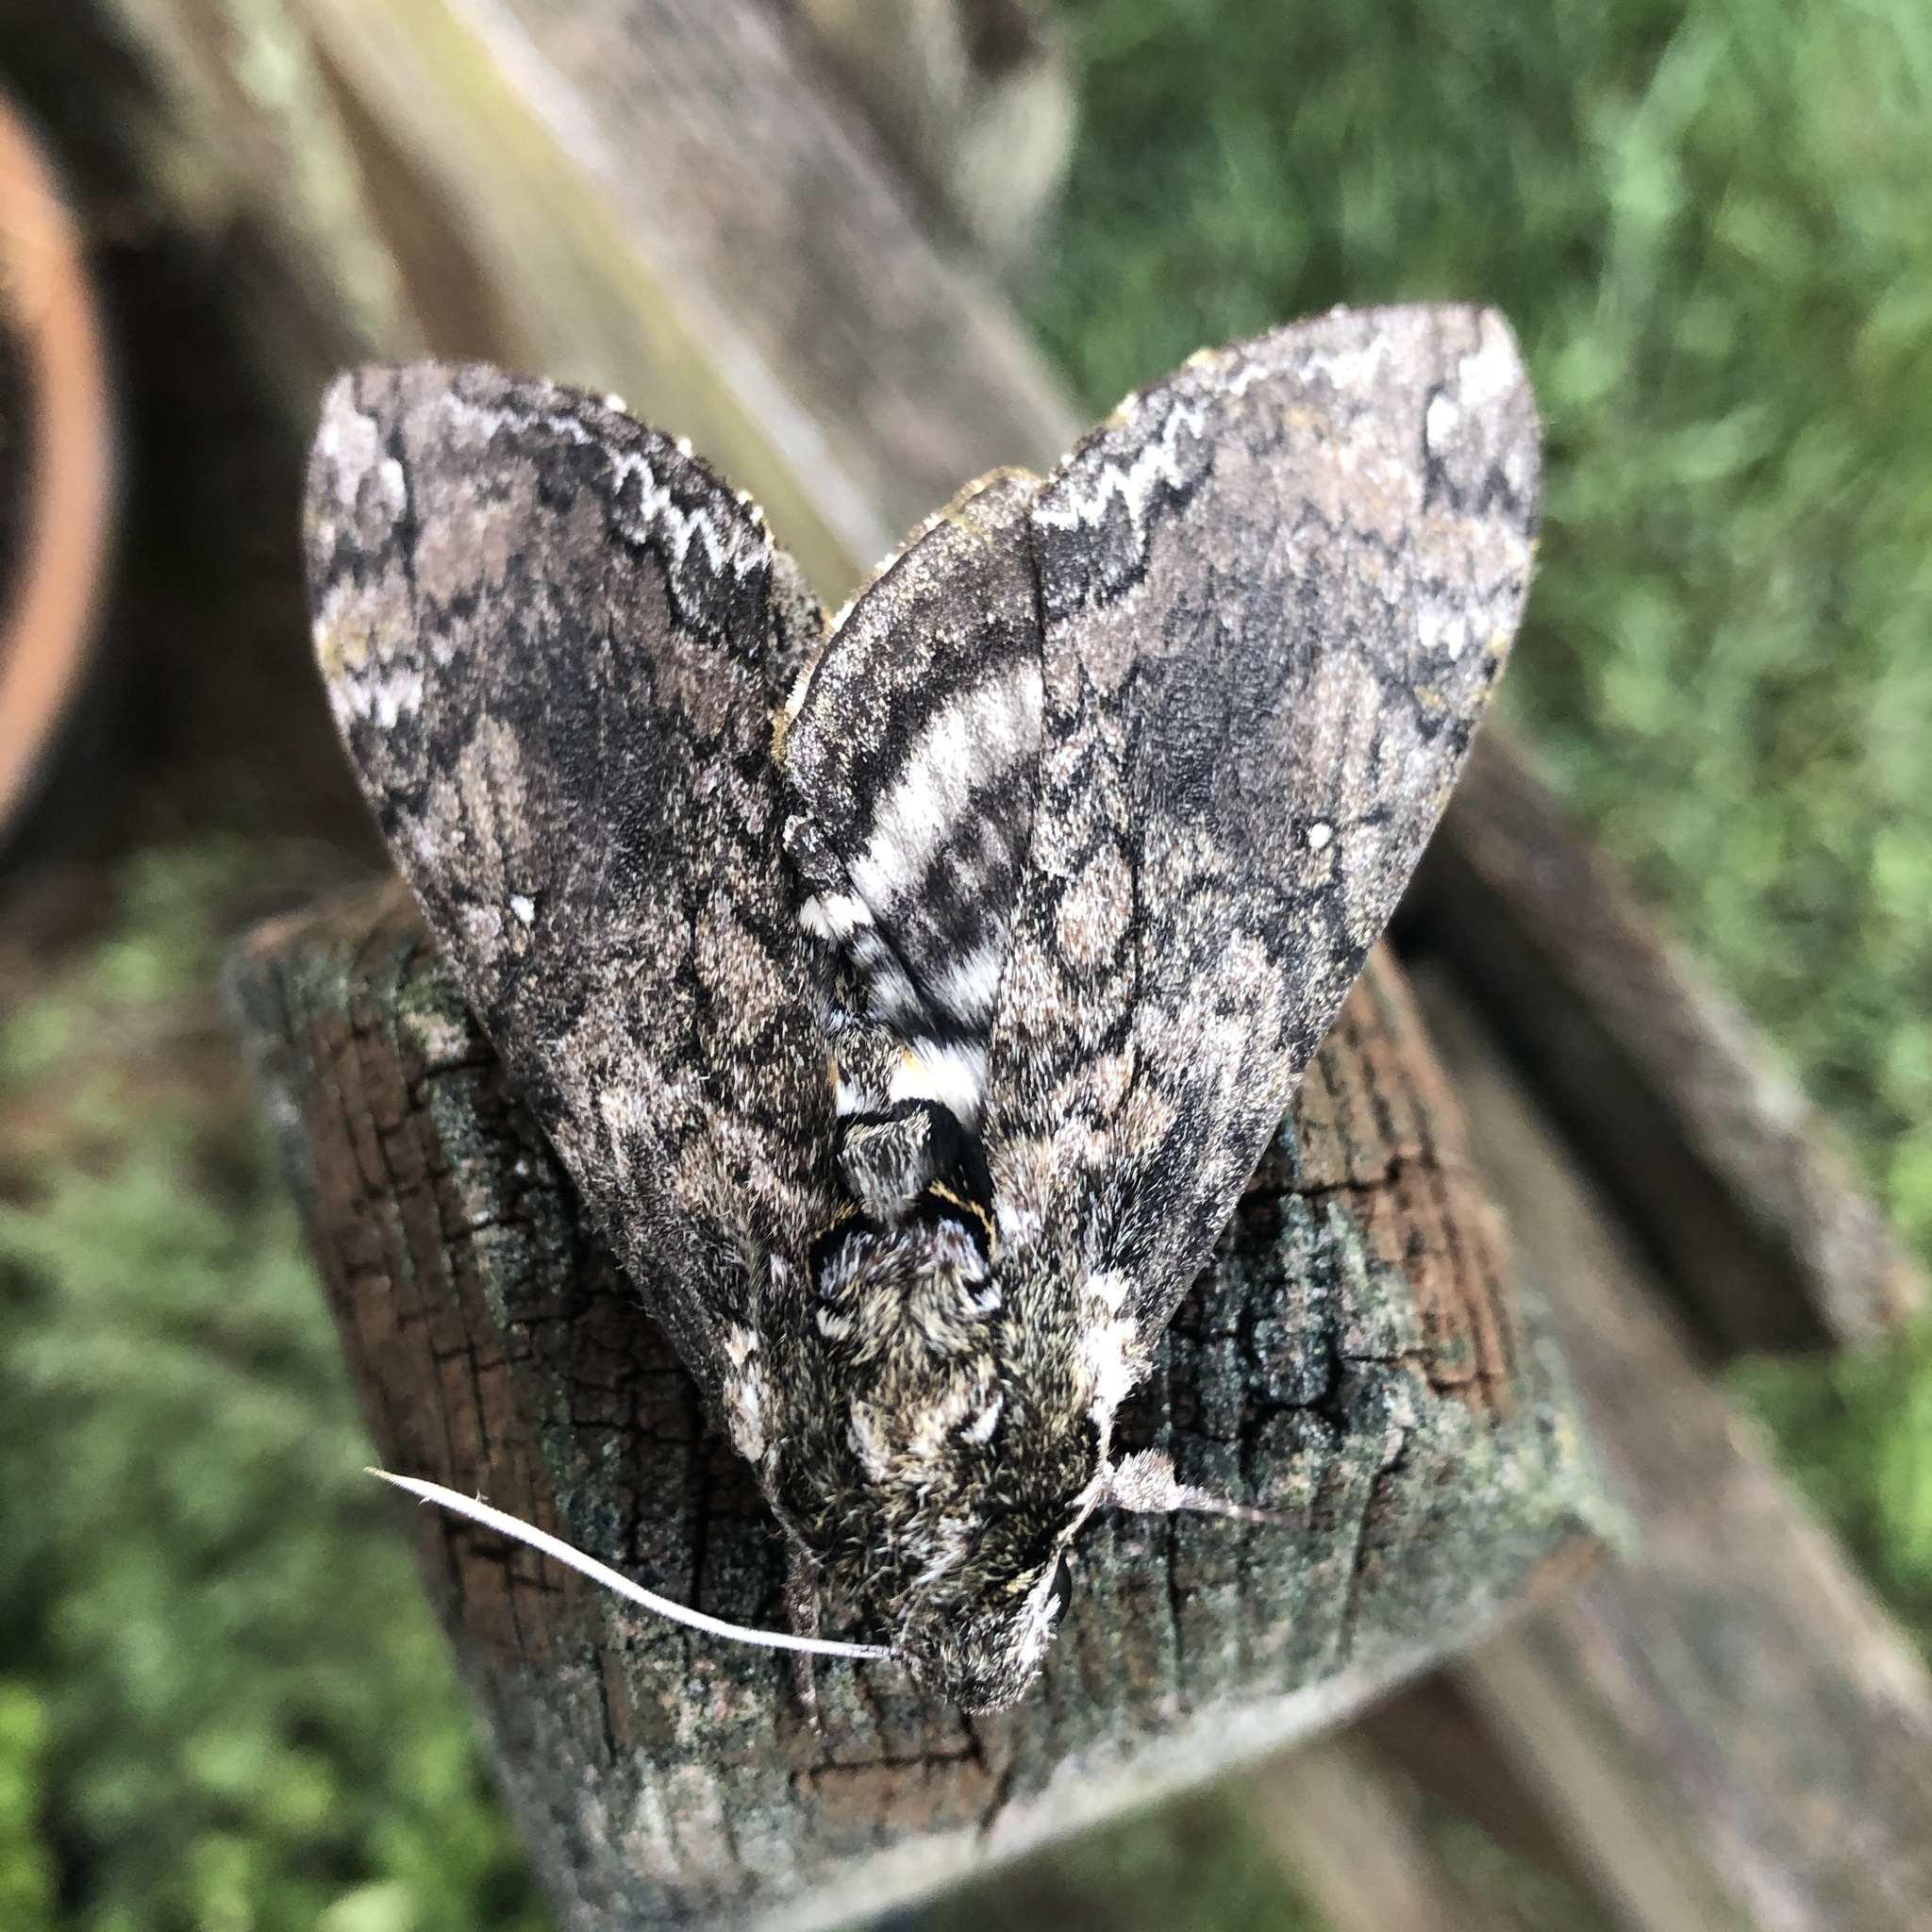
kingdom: Animalia
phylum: Arthropoda
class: Insecta
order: Lepidoptera
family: Sphingidae
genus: Manduca
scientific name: Manduca sexta
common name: Carolina sphinx
